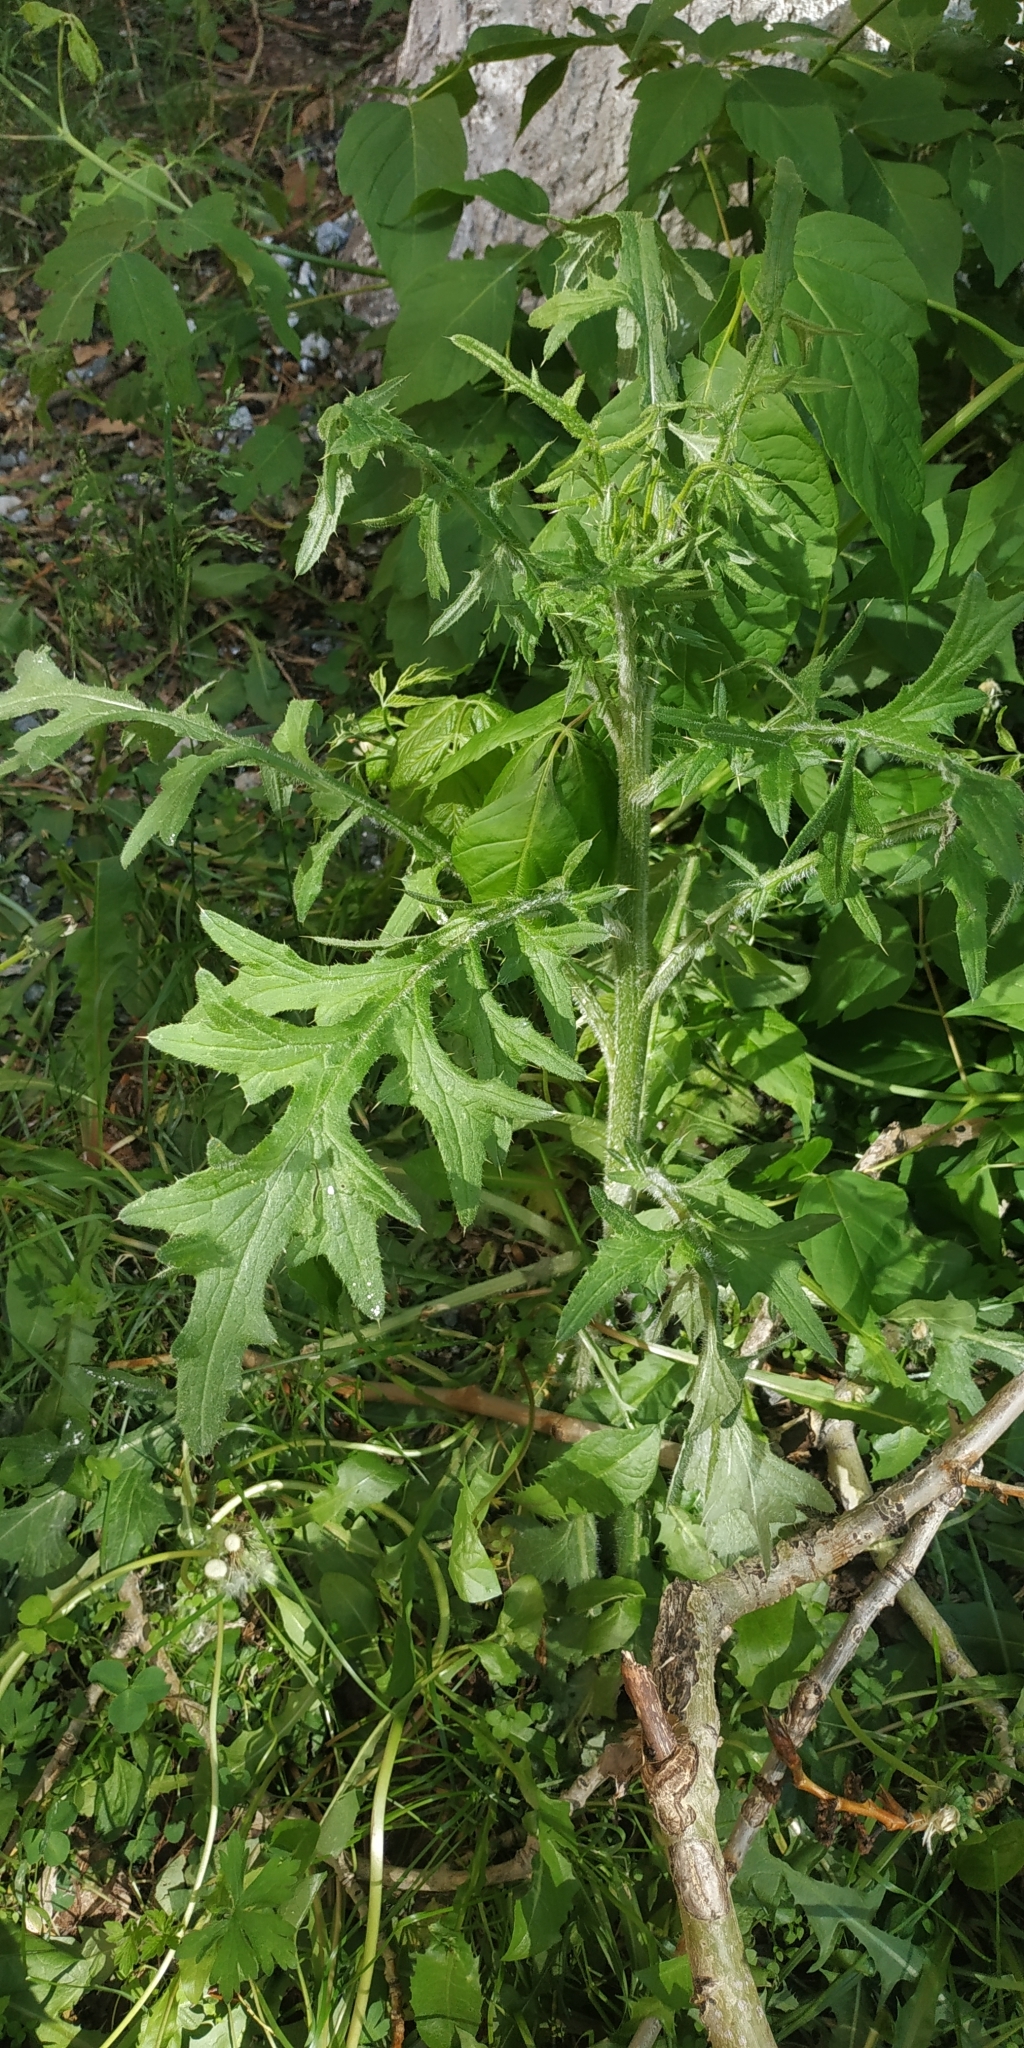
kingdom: Plantae
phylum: Tracheophyta
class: Magnoliopsida
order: Asterales
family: Asteraceae
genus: Cirsium
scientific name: Cirsium vulgare
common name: Bull thistle
